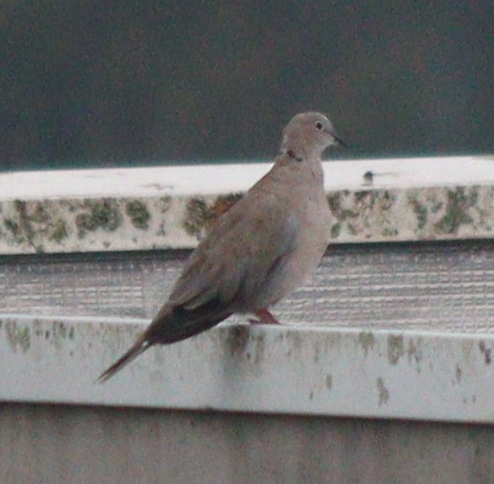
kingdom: Animalia
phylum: Chordata
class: Aves
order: Columbiformes
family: Columbidae
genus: Streptopelia
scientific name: Streptopelia decaocto
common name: Eurasian collared dove
